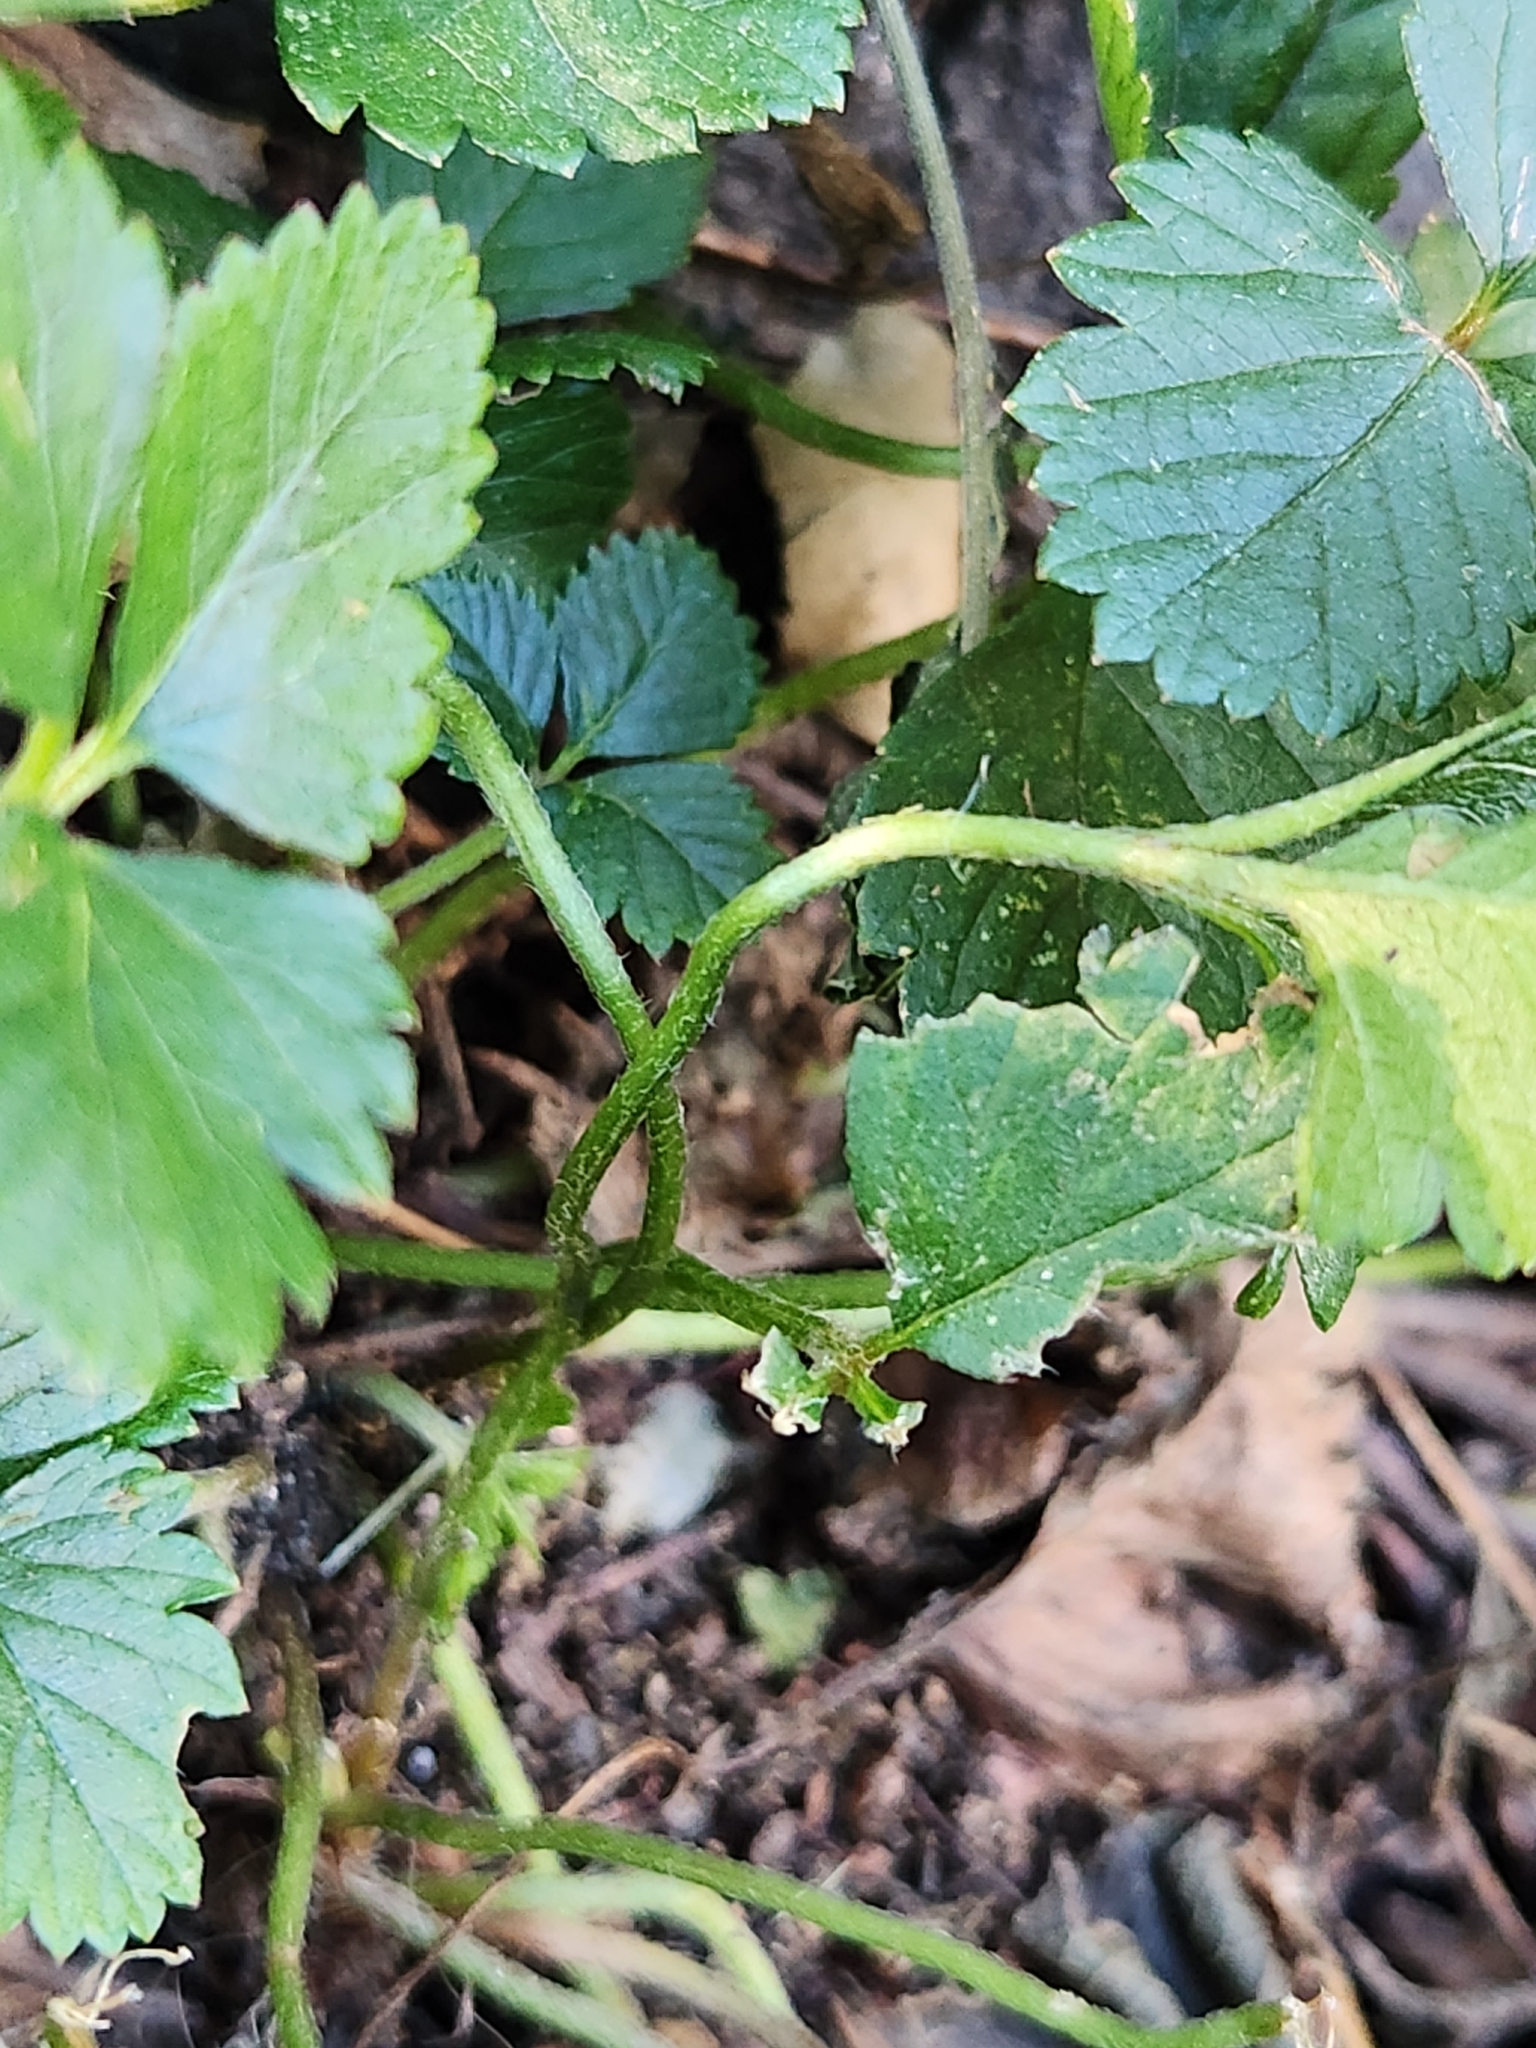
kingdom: Plantae
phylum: Tracheophyta
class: Magnoliopsida
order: Rosales
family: Rosaceae
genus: Potentilla
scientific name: Potentilla indica
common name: Yellow-flowered strawberry
